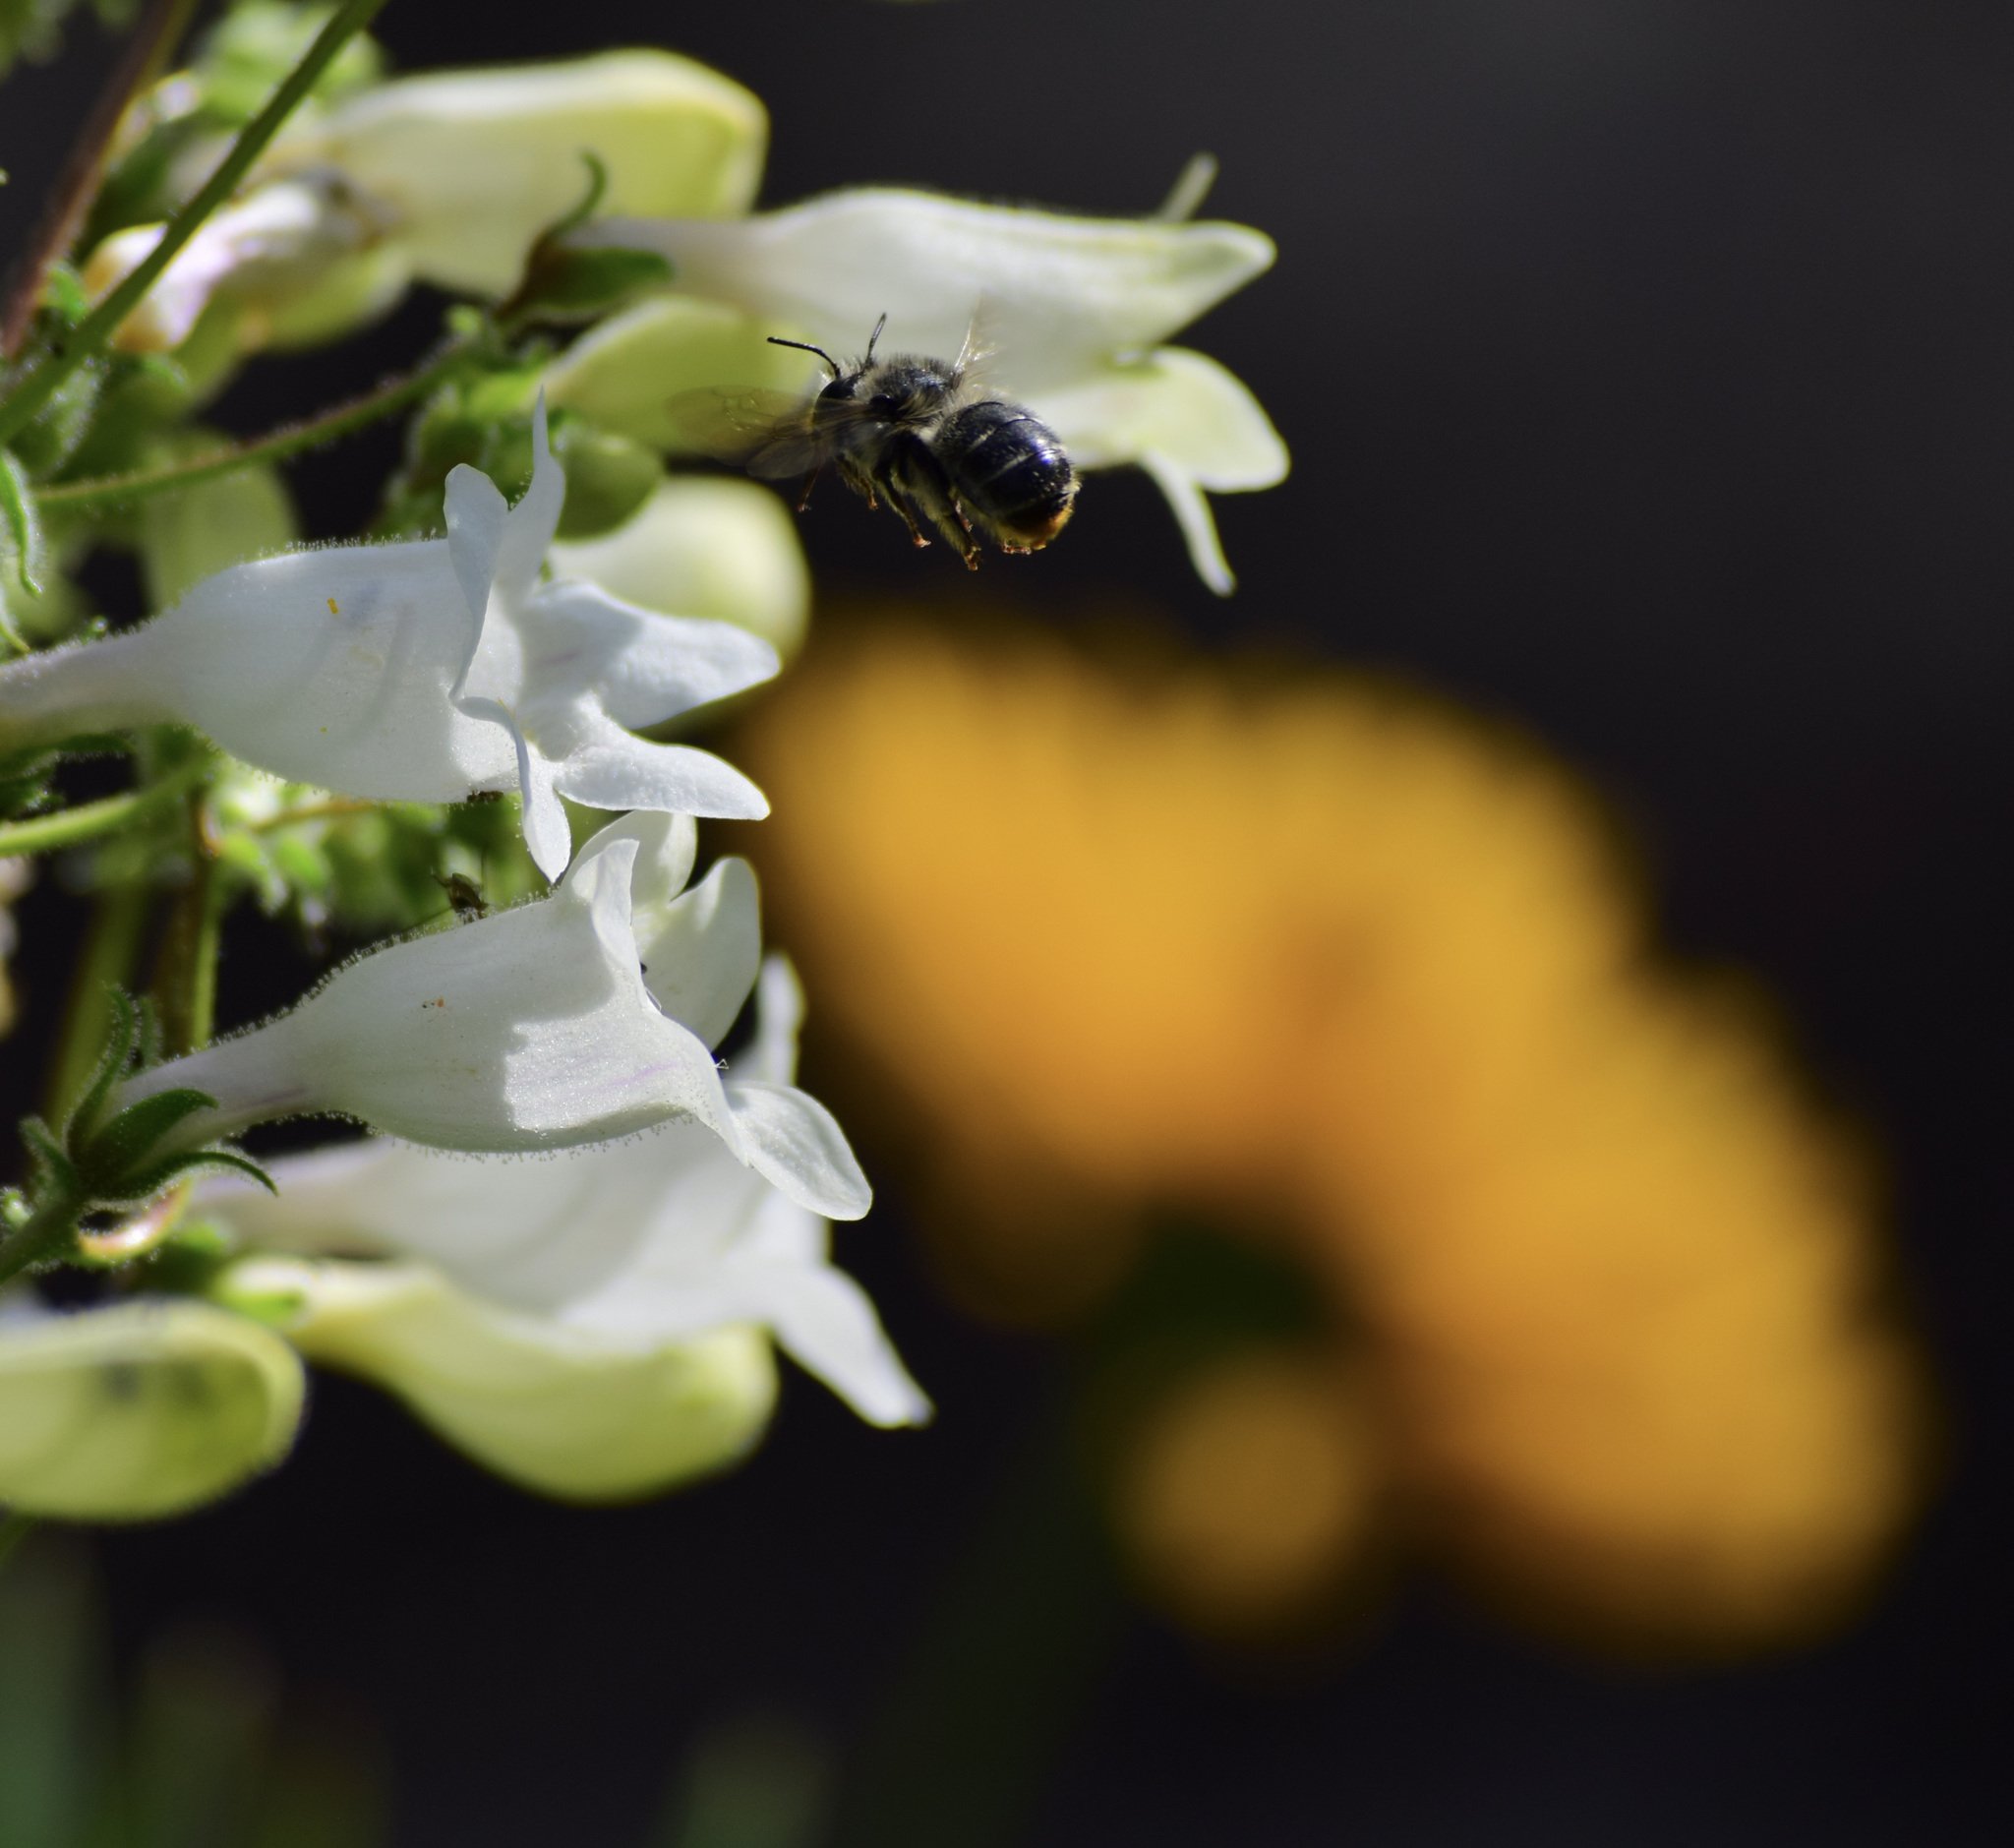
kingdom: Animalia
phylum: Arthropoda
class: Insecta
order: Hymenoptera
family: Apidae
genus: Anthophora
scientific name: Anthophora terminalis
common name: Orange-tipped wood-digger bee
